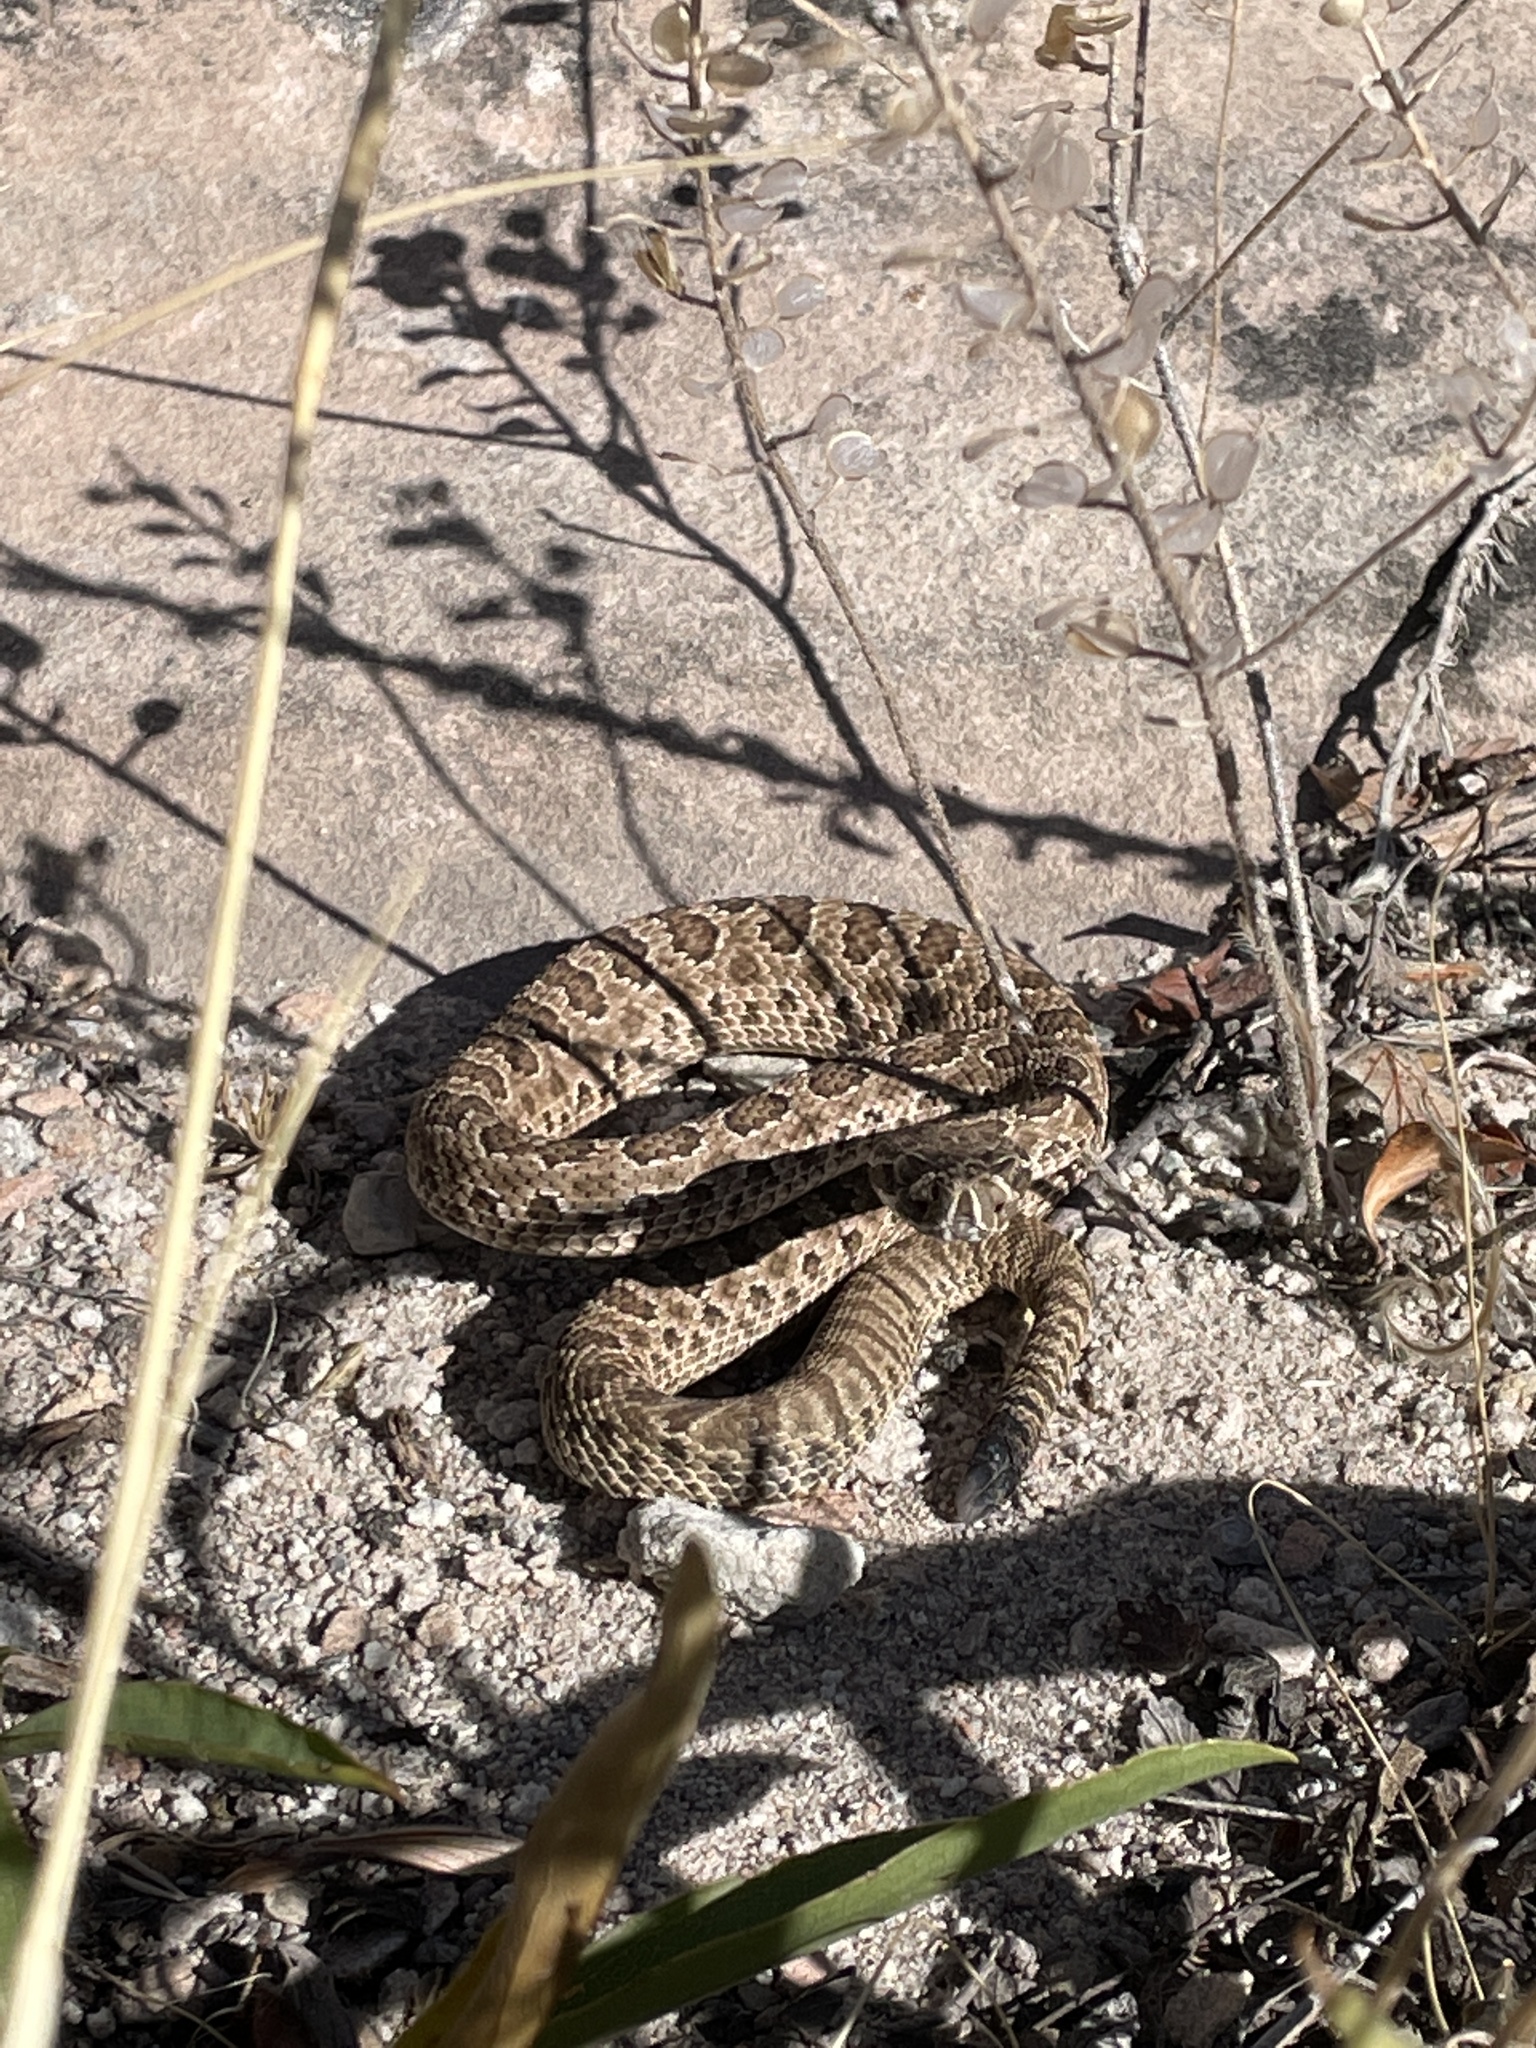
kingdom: Animalia
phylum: Chordata
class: Squamata
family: Viperidae
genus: Crotalus
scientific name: Crotalus viridis
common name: Prairie rattlesnake
